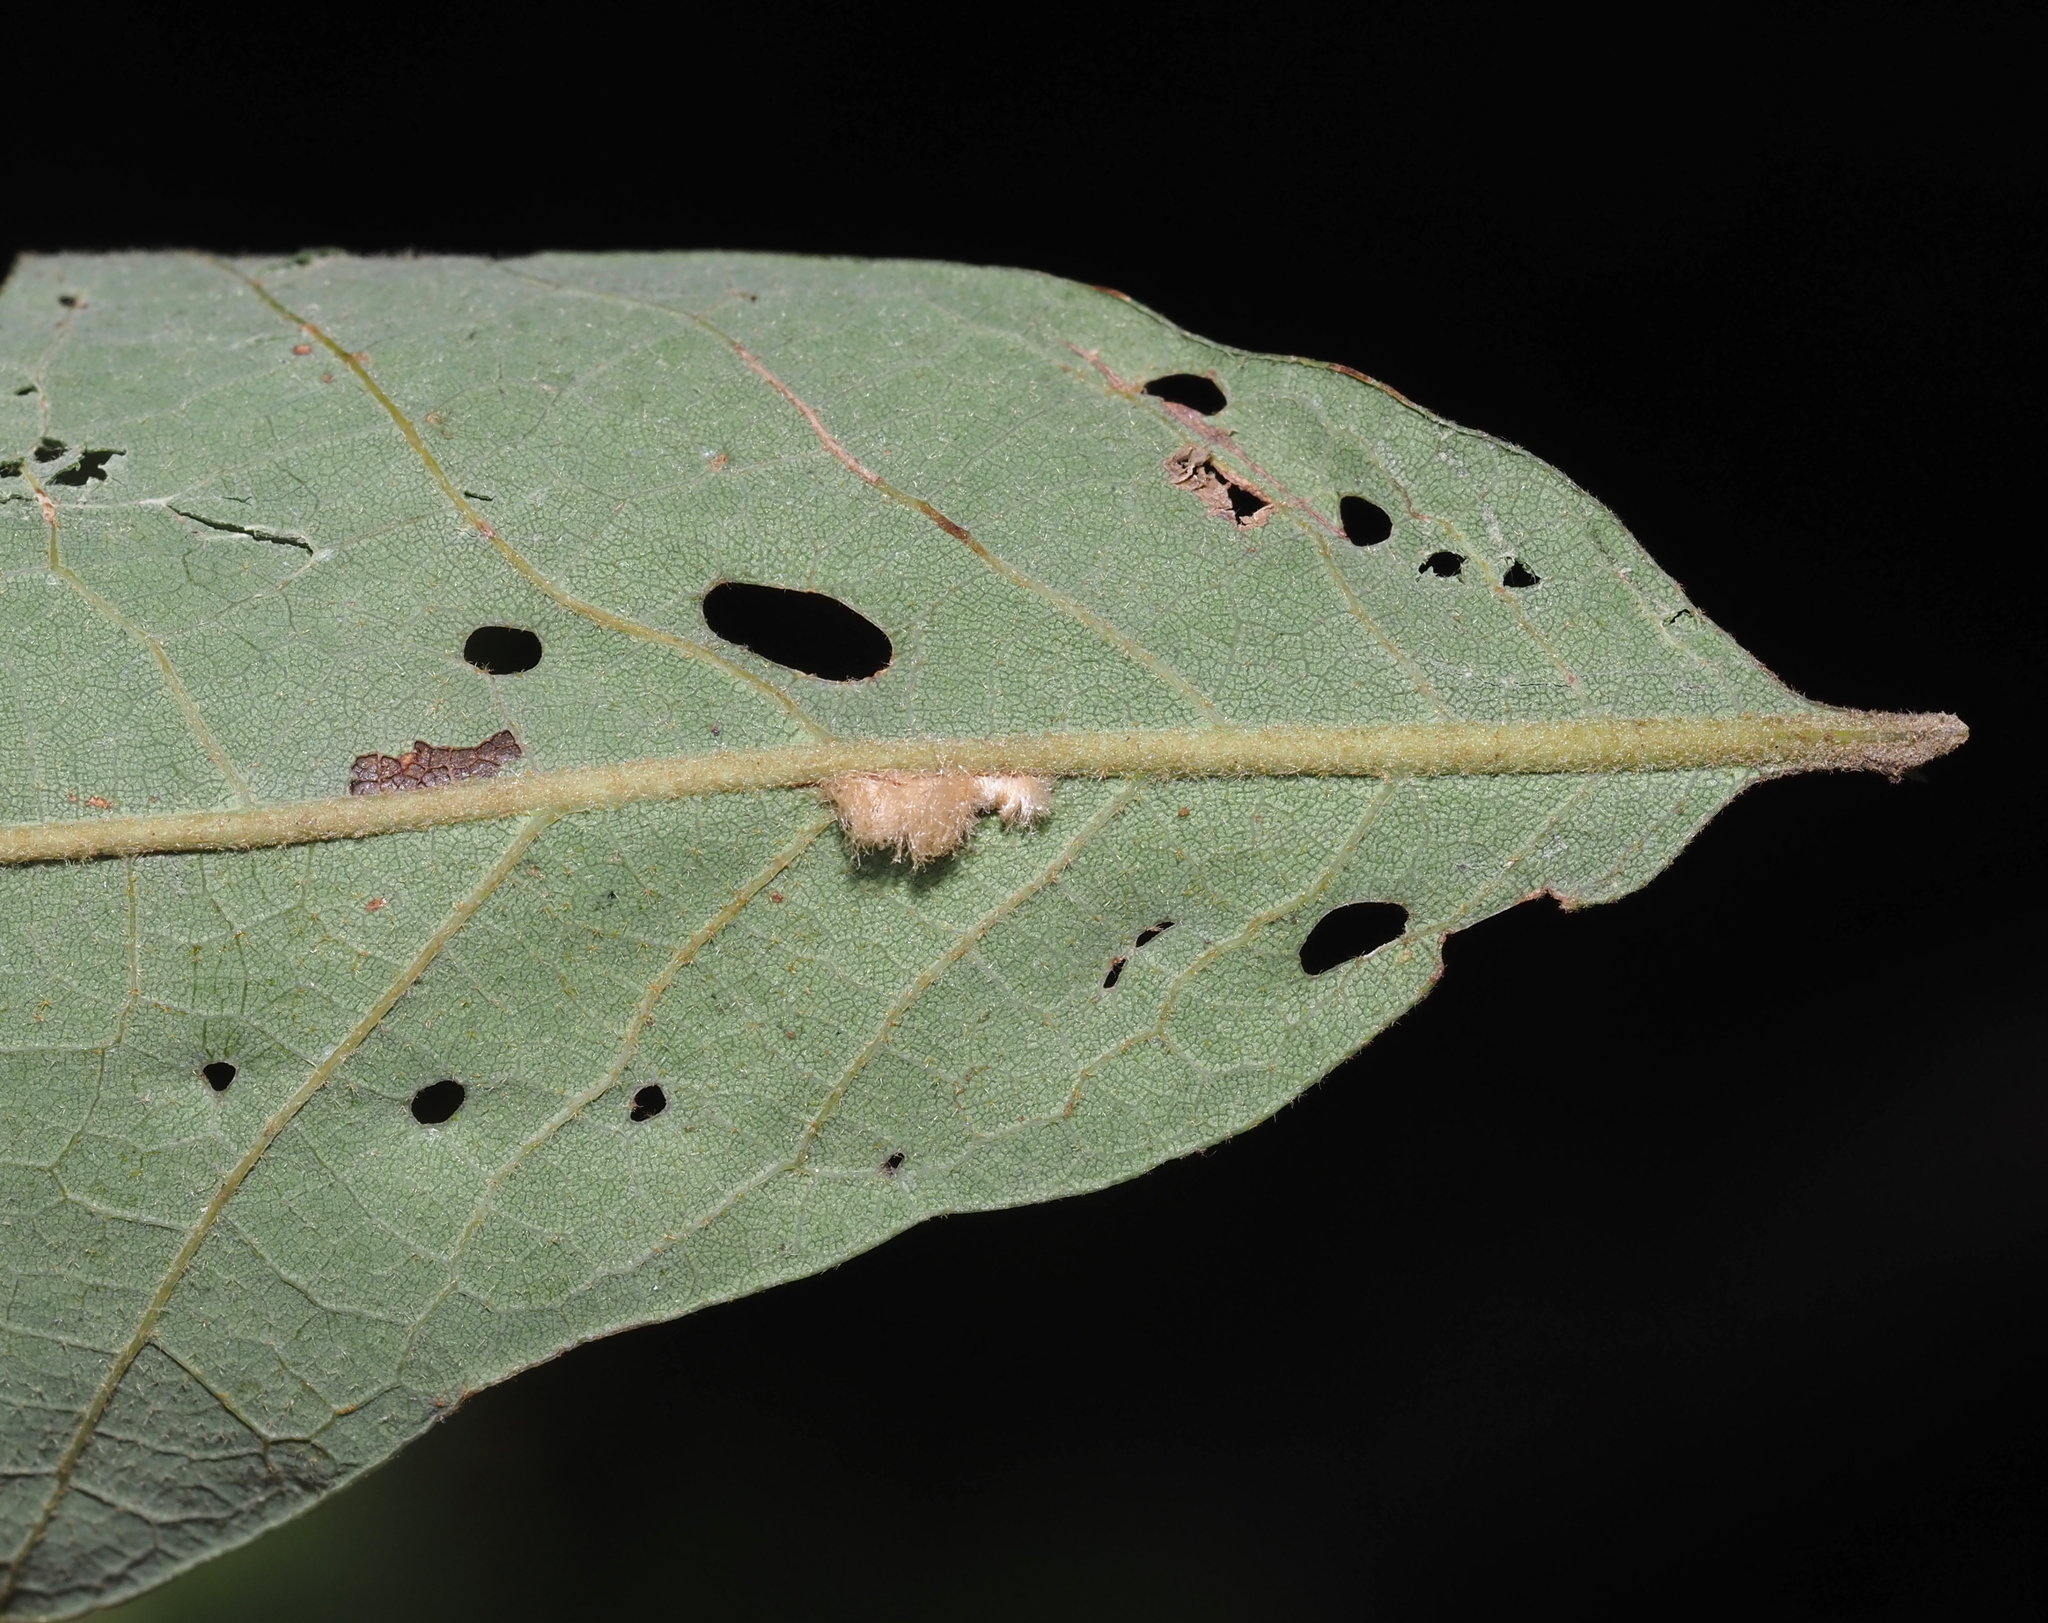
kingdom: Animalia
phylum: Arthropoda
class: Insecta
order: Hymenoptera
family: Cynipidae
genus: Andricus
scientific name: Andricus Druon pattoni
